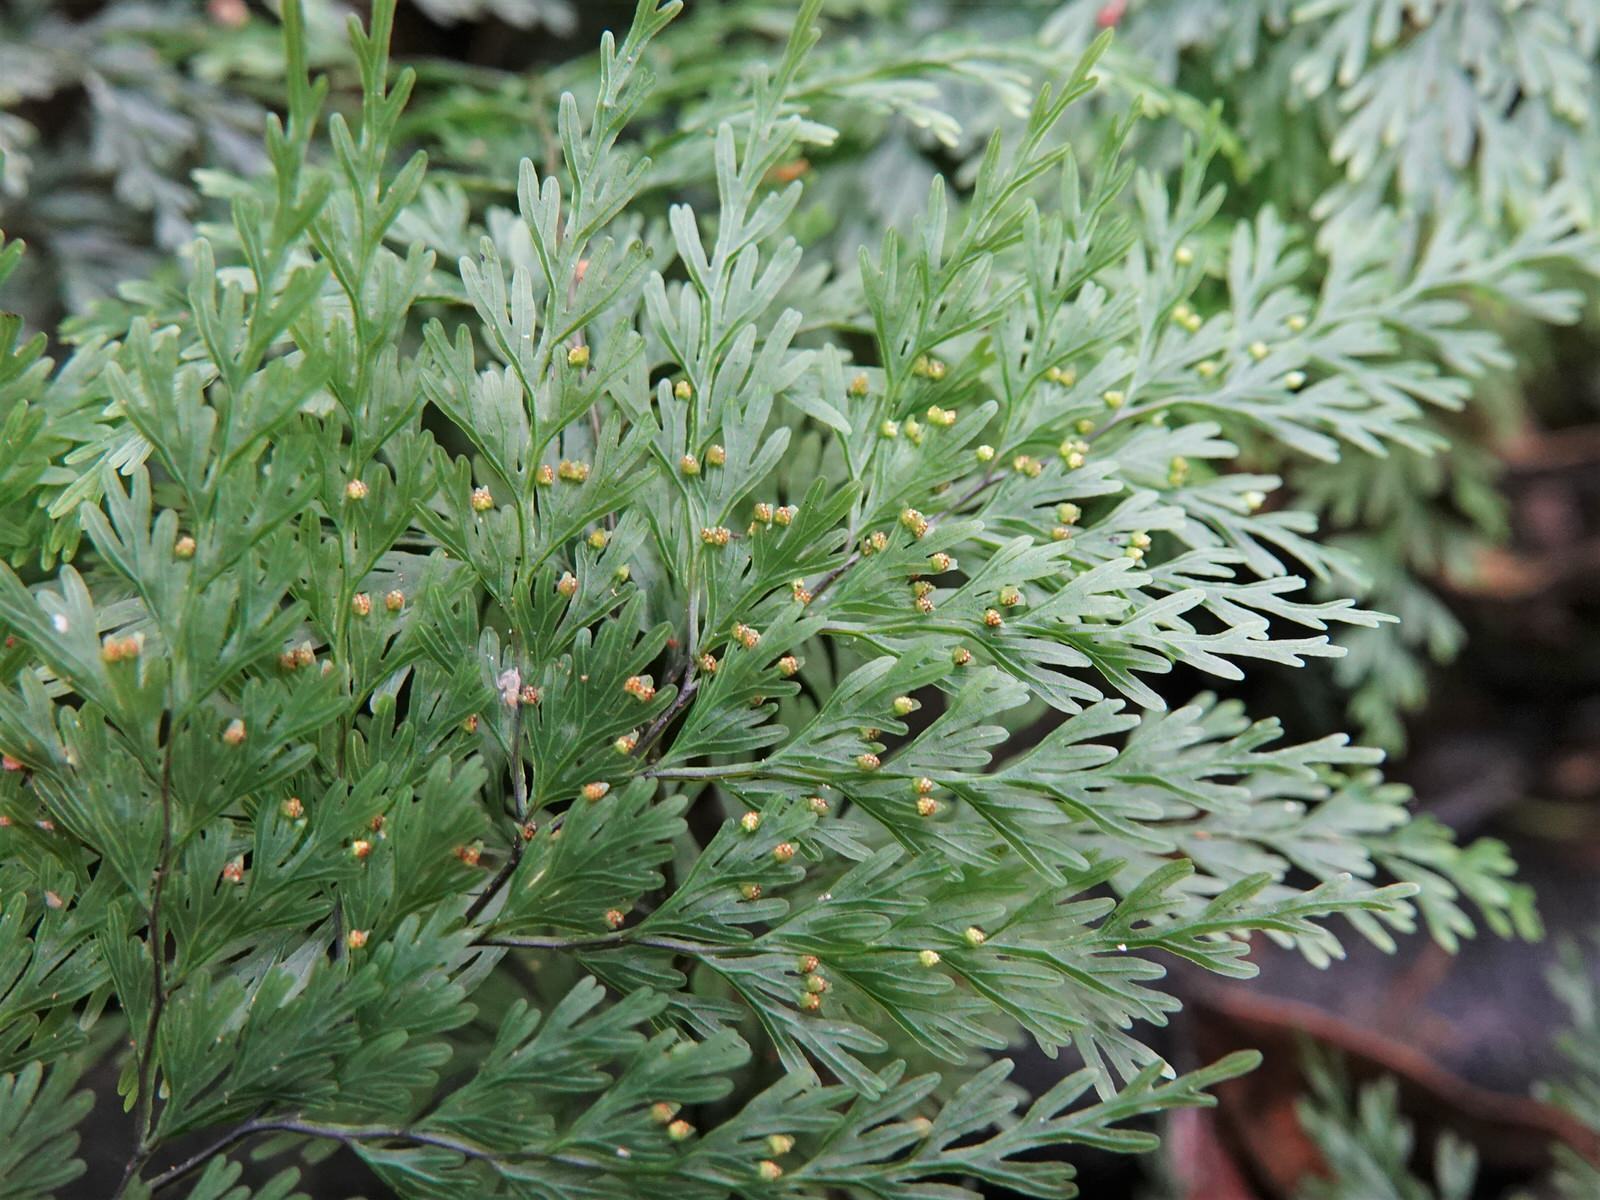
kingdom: Plantae
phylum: Tracheophyta
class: Polypodiopsida
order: Hymenophyllales
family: Hymenophyllaceae
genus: Hymenophyllum
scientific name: Hymenophyllum demissum
